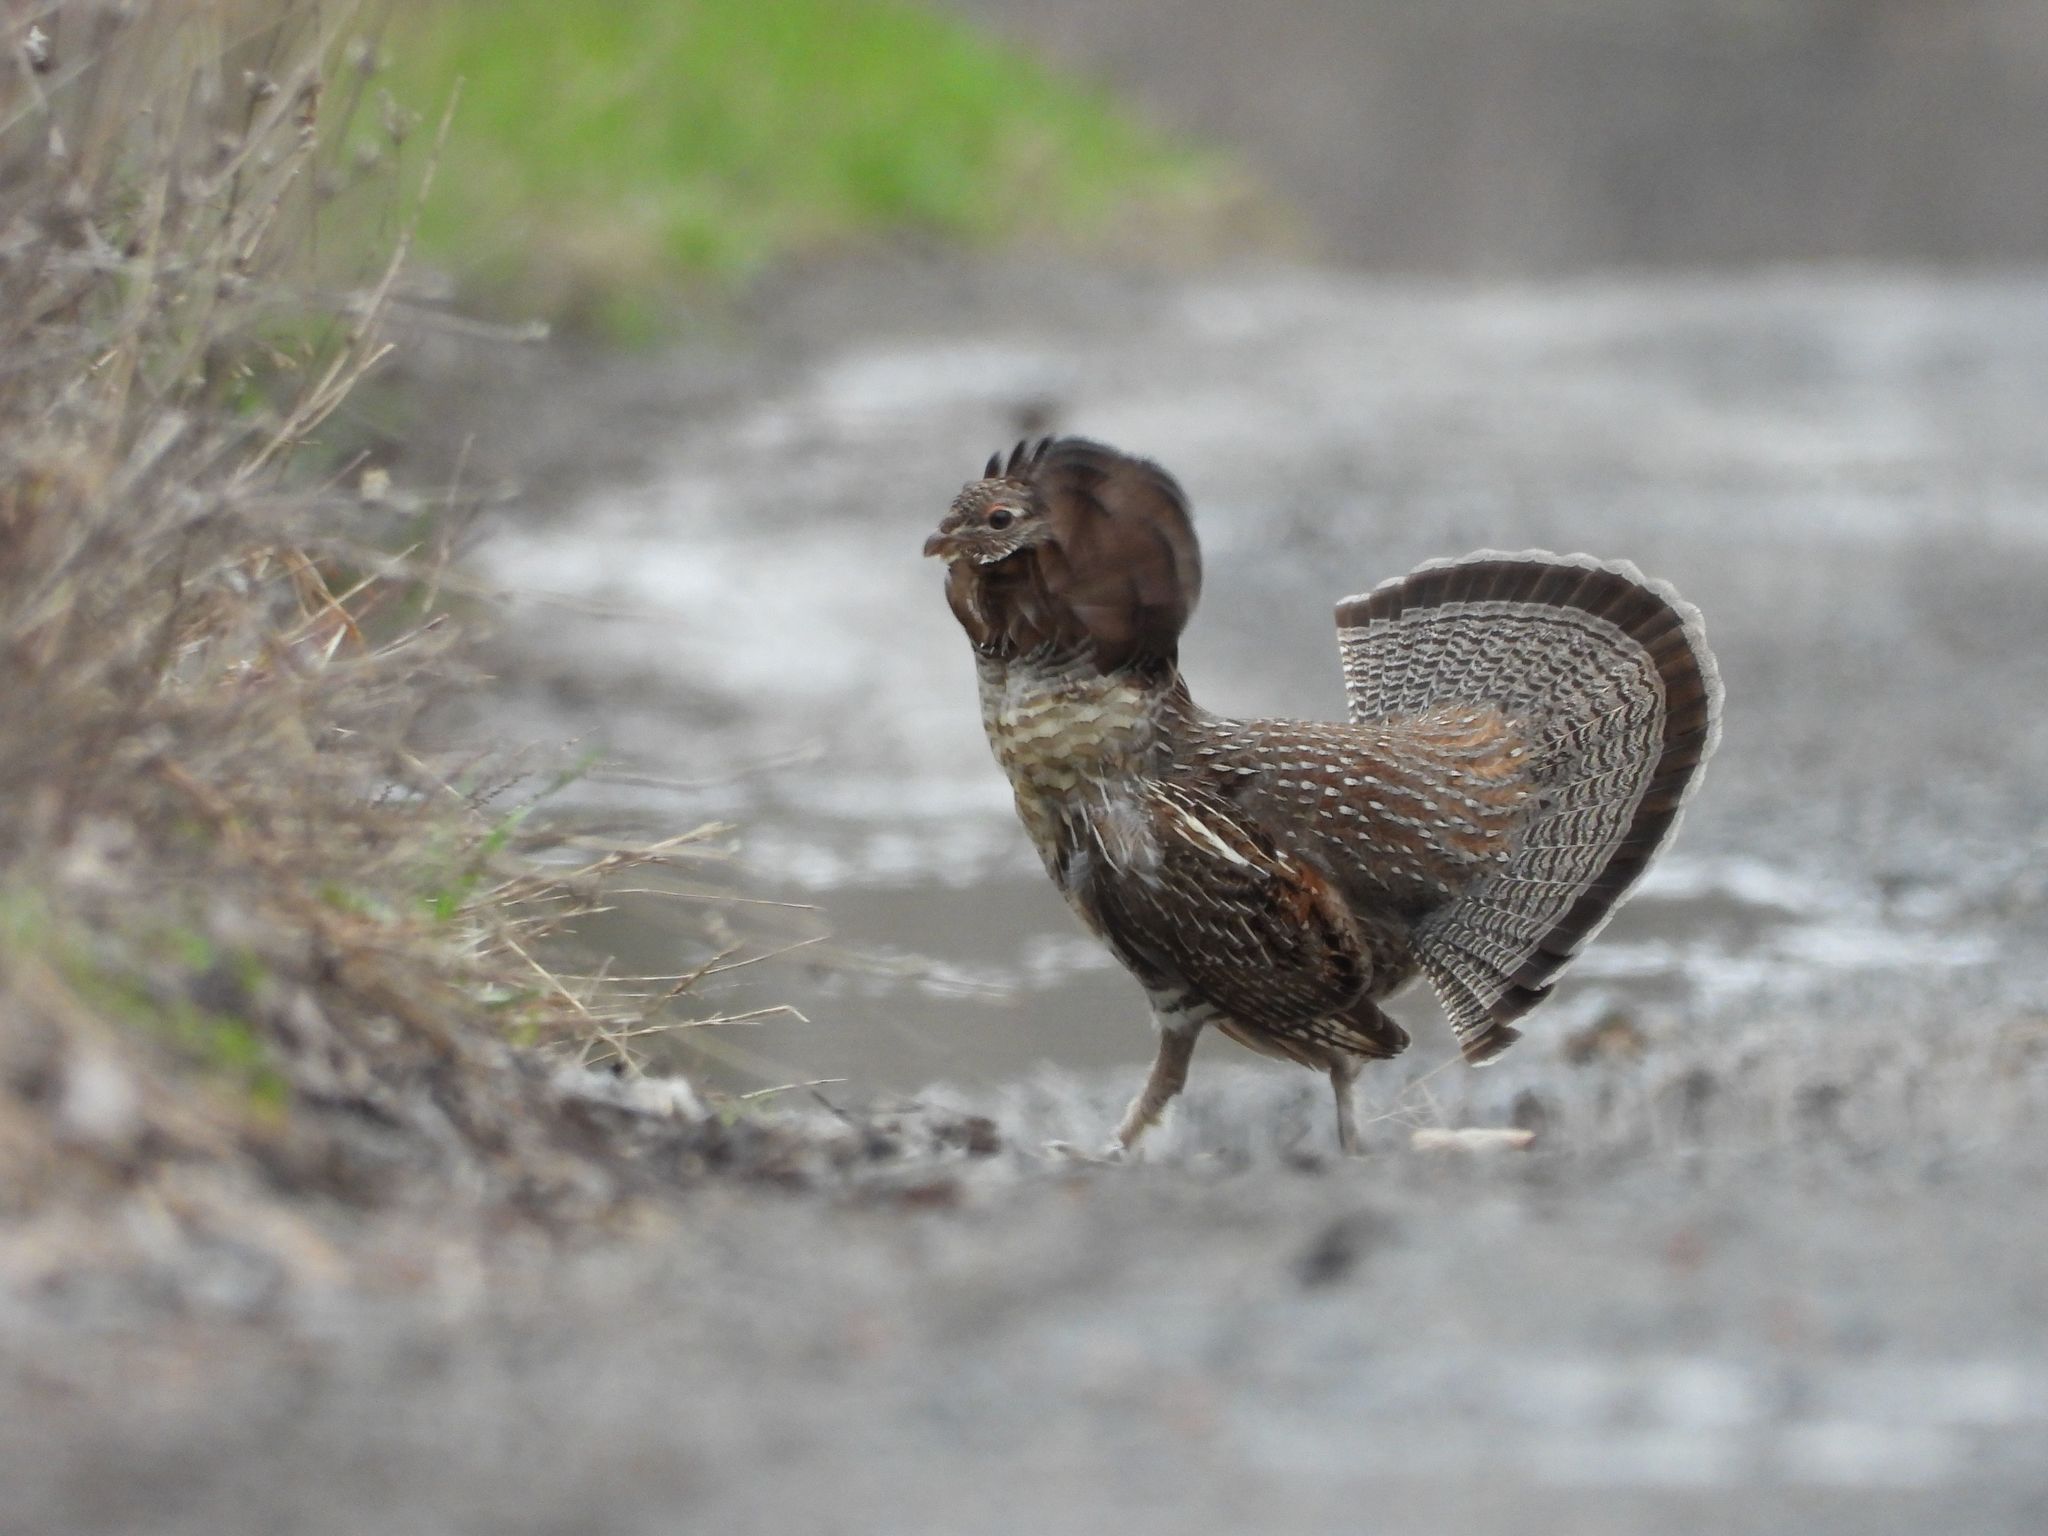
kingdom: Animalia
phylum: Chordata
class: Aves
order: Galliformes
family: Phasianidae
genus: Bonasa
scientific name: Bonasa umbellus
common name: Ruffed grouse
